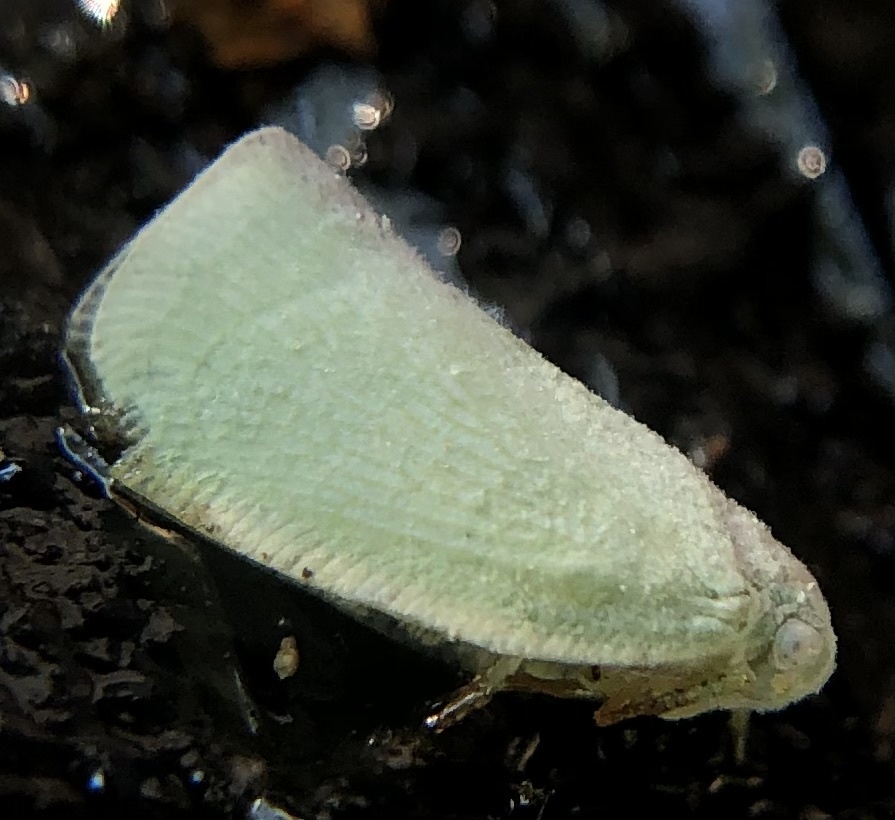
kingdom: Animalia
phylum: Arthropoda
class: Insecta
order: Hemiptera
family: Flatidae
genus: Flatormenis
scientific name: Flatormenis proxima
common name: Northern flatid planthopper
